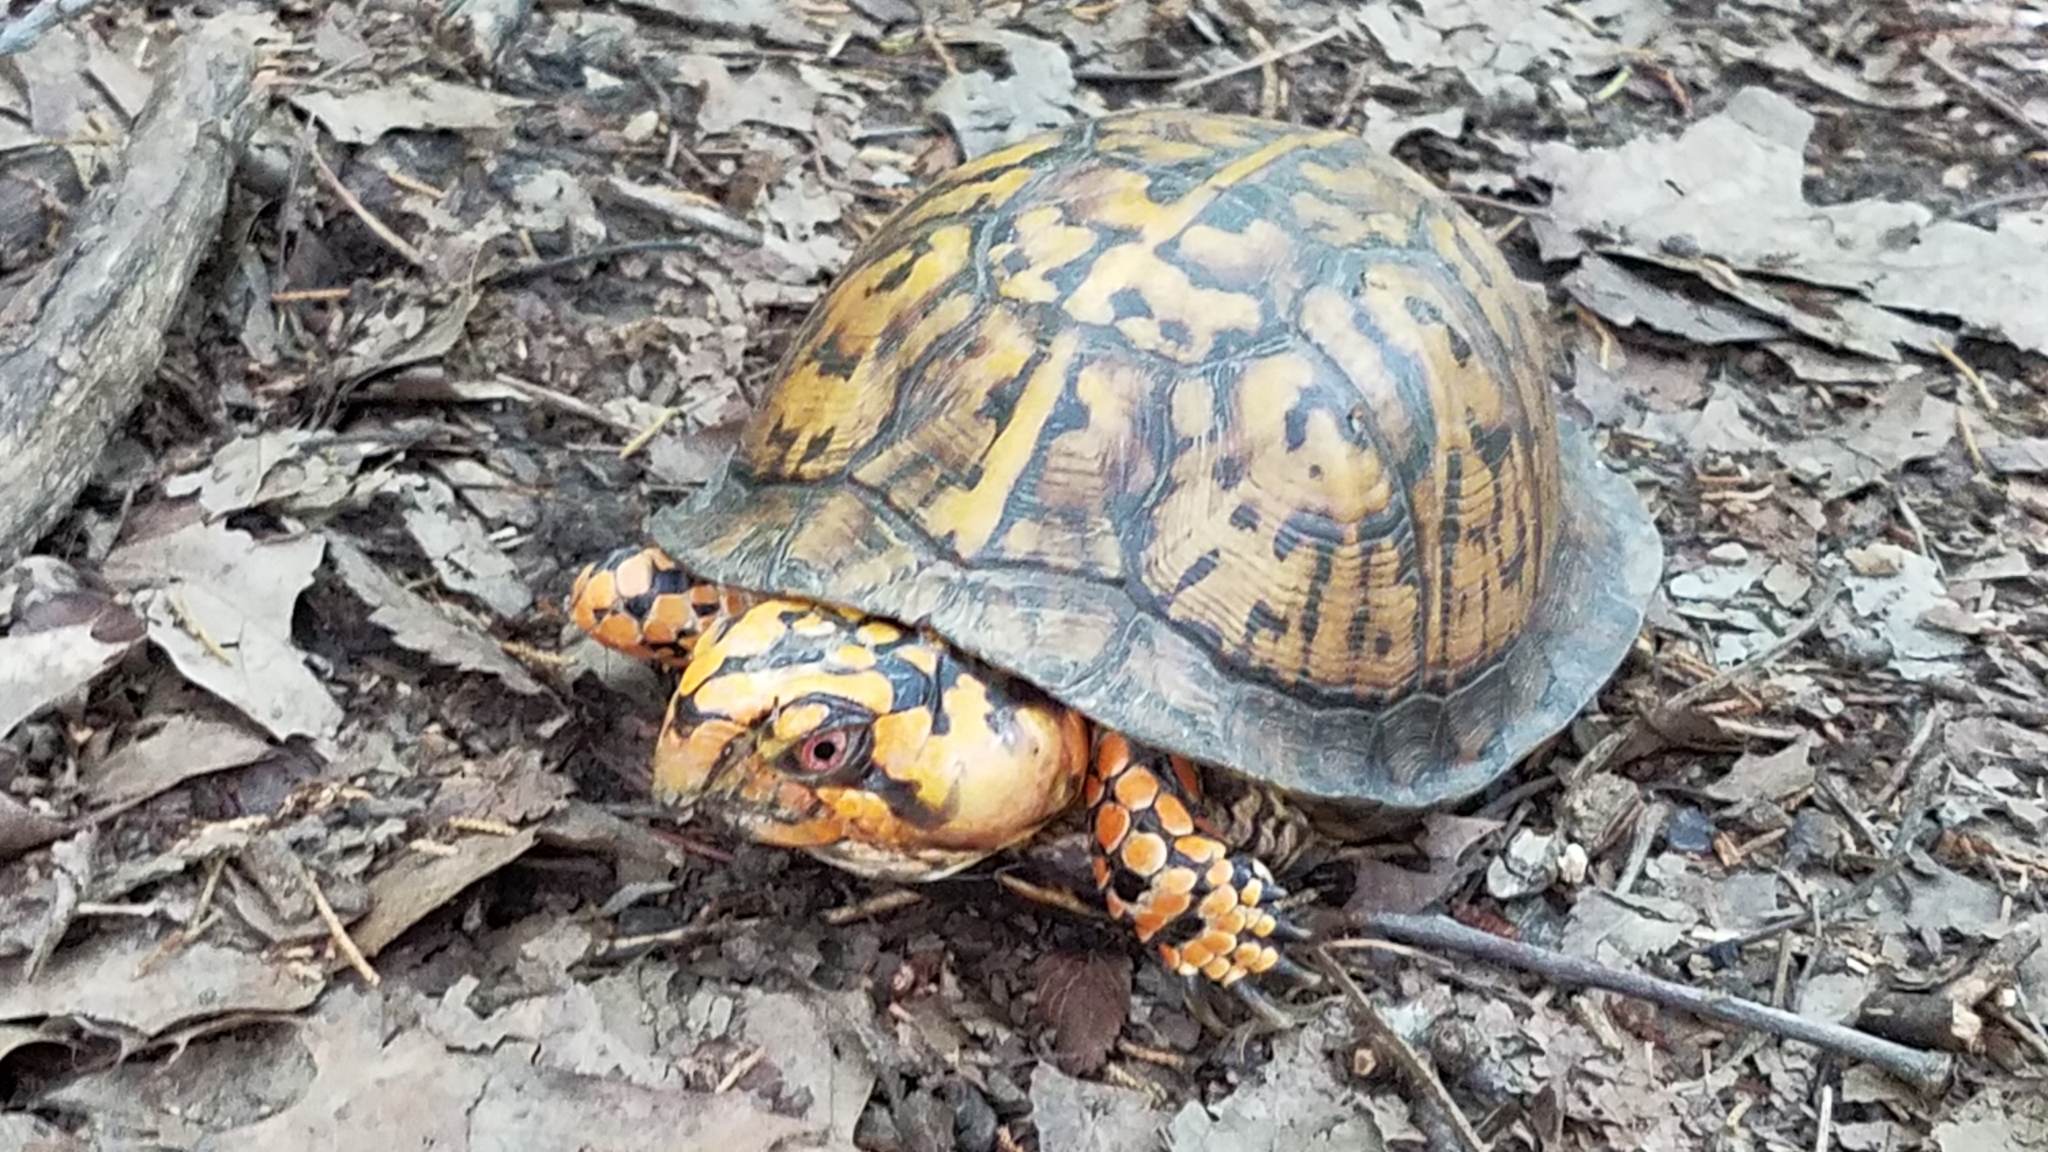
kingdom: Animalia
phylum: Chordata
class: Testudines
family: Emydidae
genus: Terrapene
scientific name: Terrapene carolina
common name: Common box turtle
